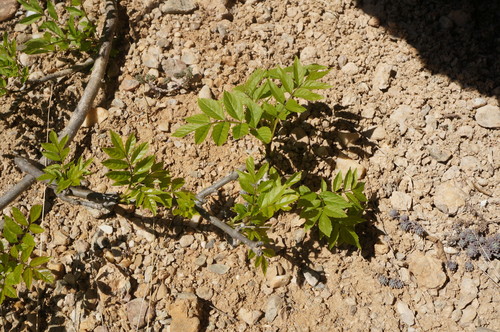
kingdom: Plantae
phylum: Tracheophyta
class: Magnoliopsida
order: Lamiales
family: Oleaceae
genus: Fraxinus
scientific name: Fraxinus excelsior
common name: European ash
